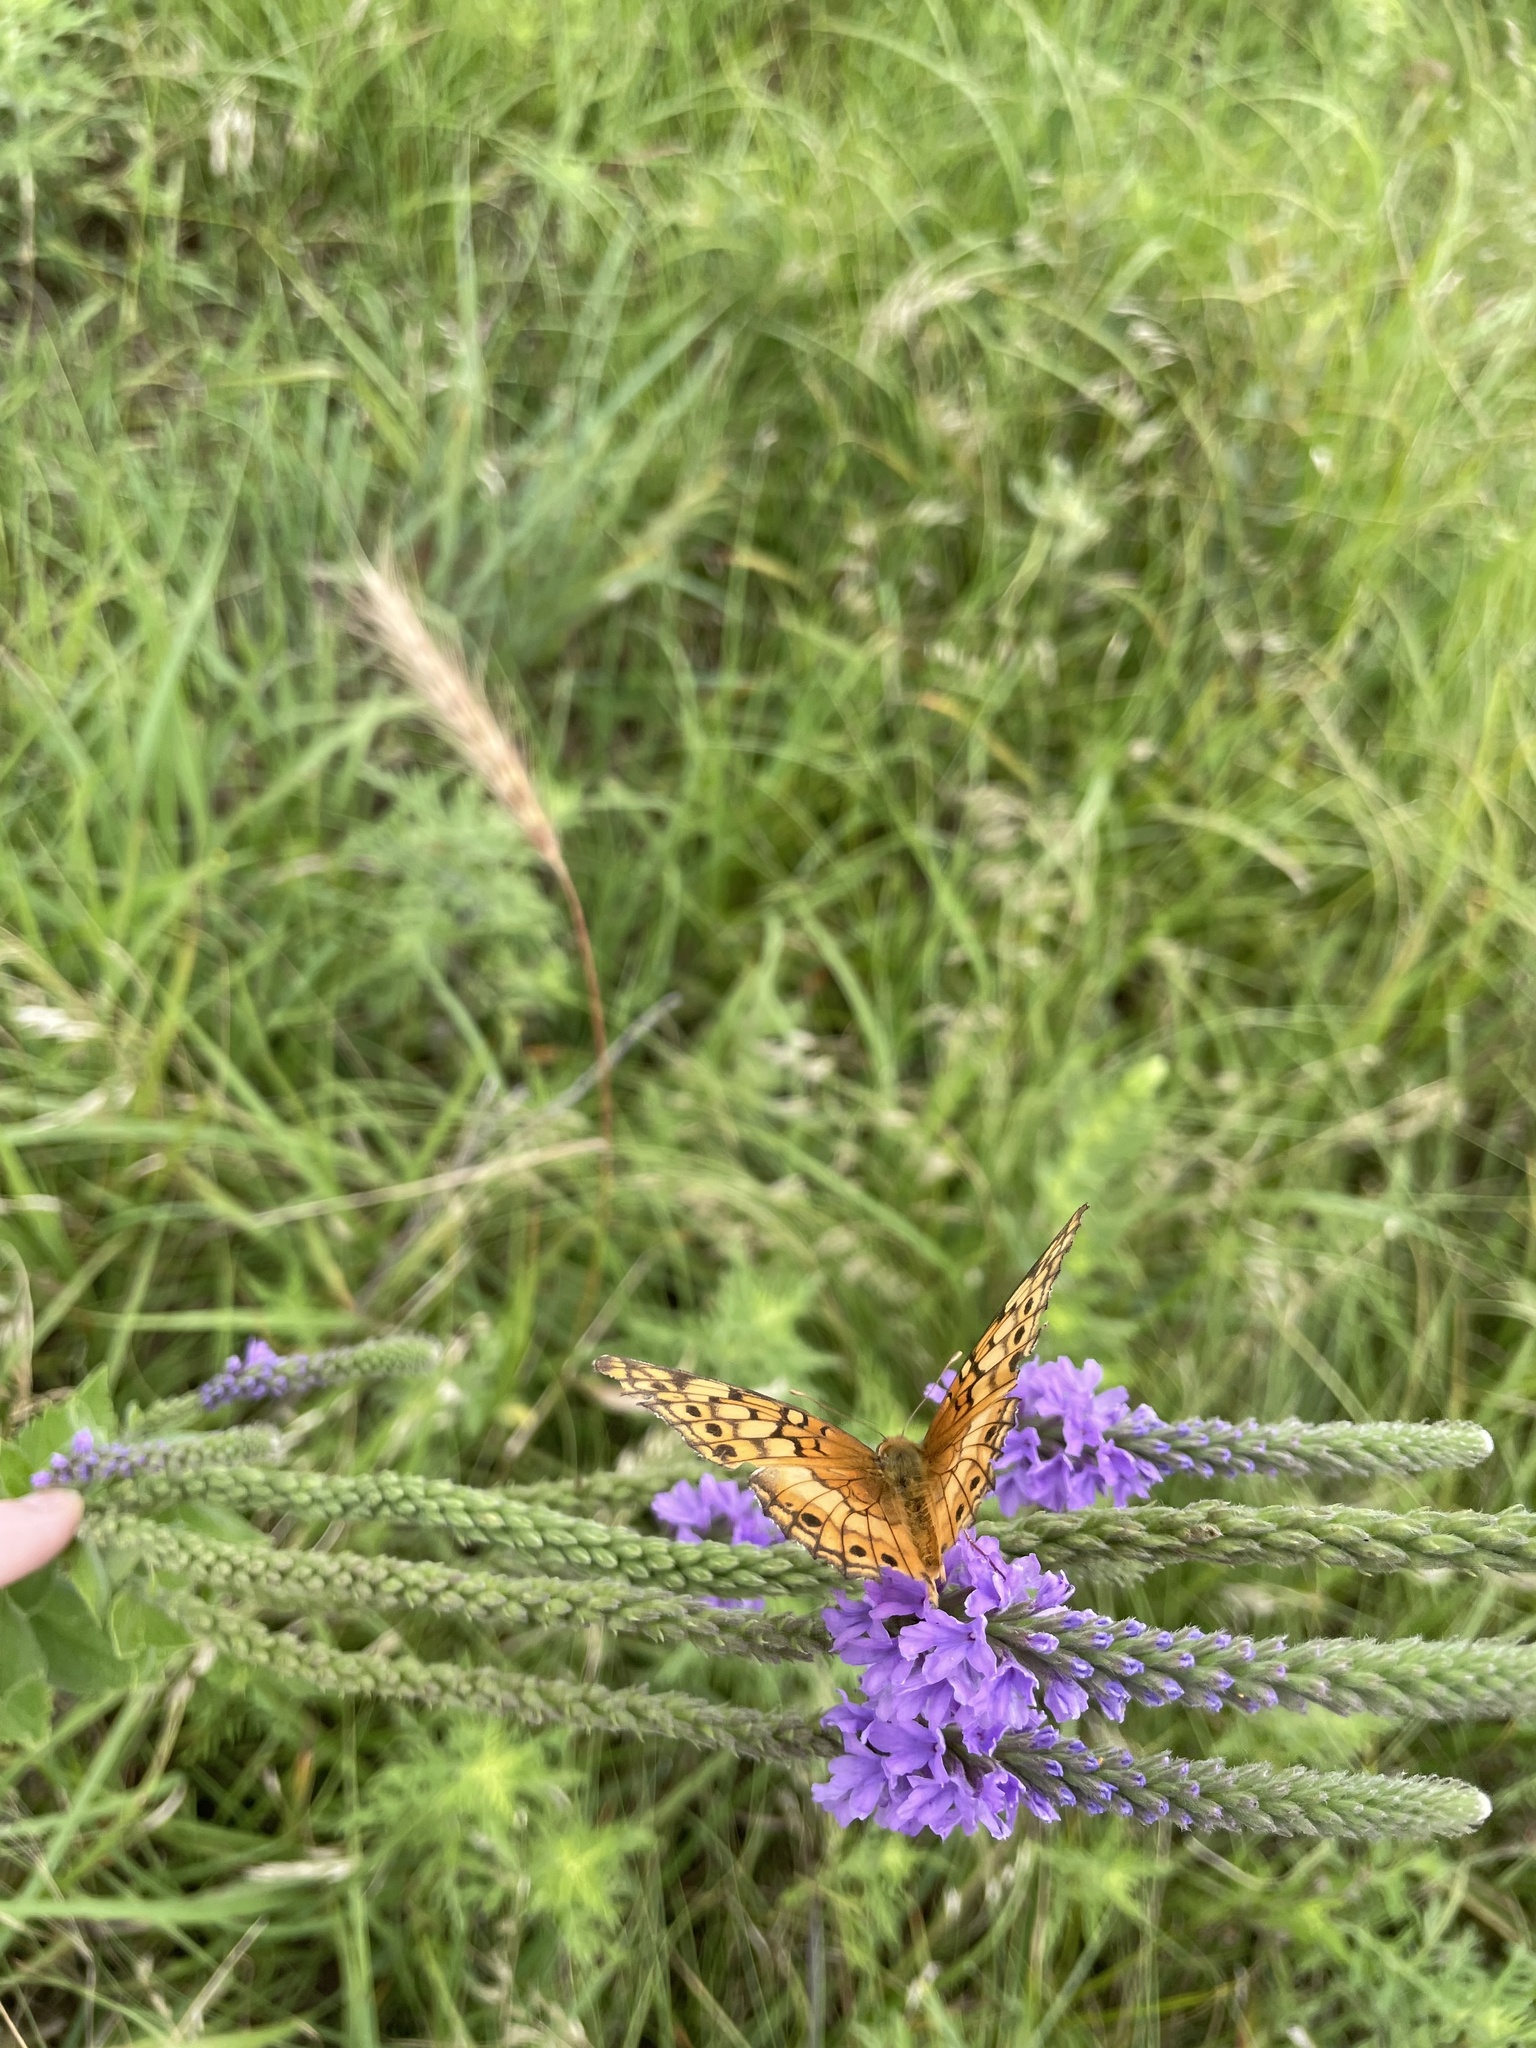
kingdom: Animalia
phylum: Arthropoda
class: Insecta
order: Lepidoptera
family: Nymphalidae
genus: Euptoieta
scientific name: Euptoieta claudia
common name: Variegated fritillary
